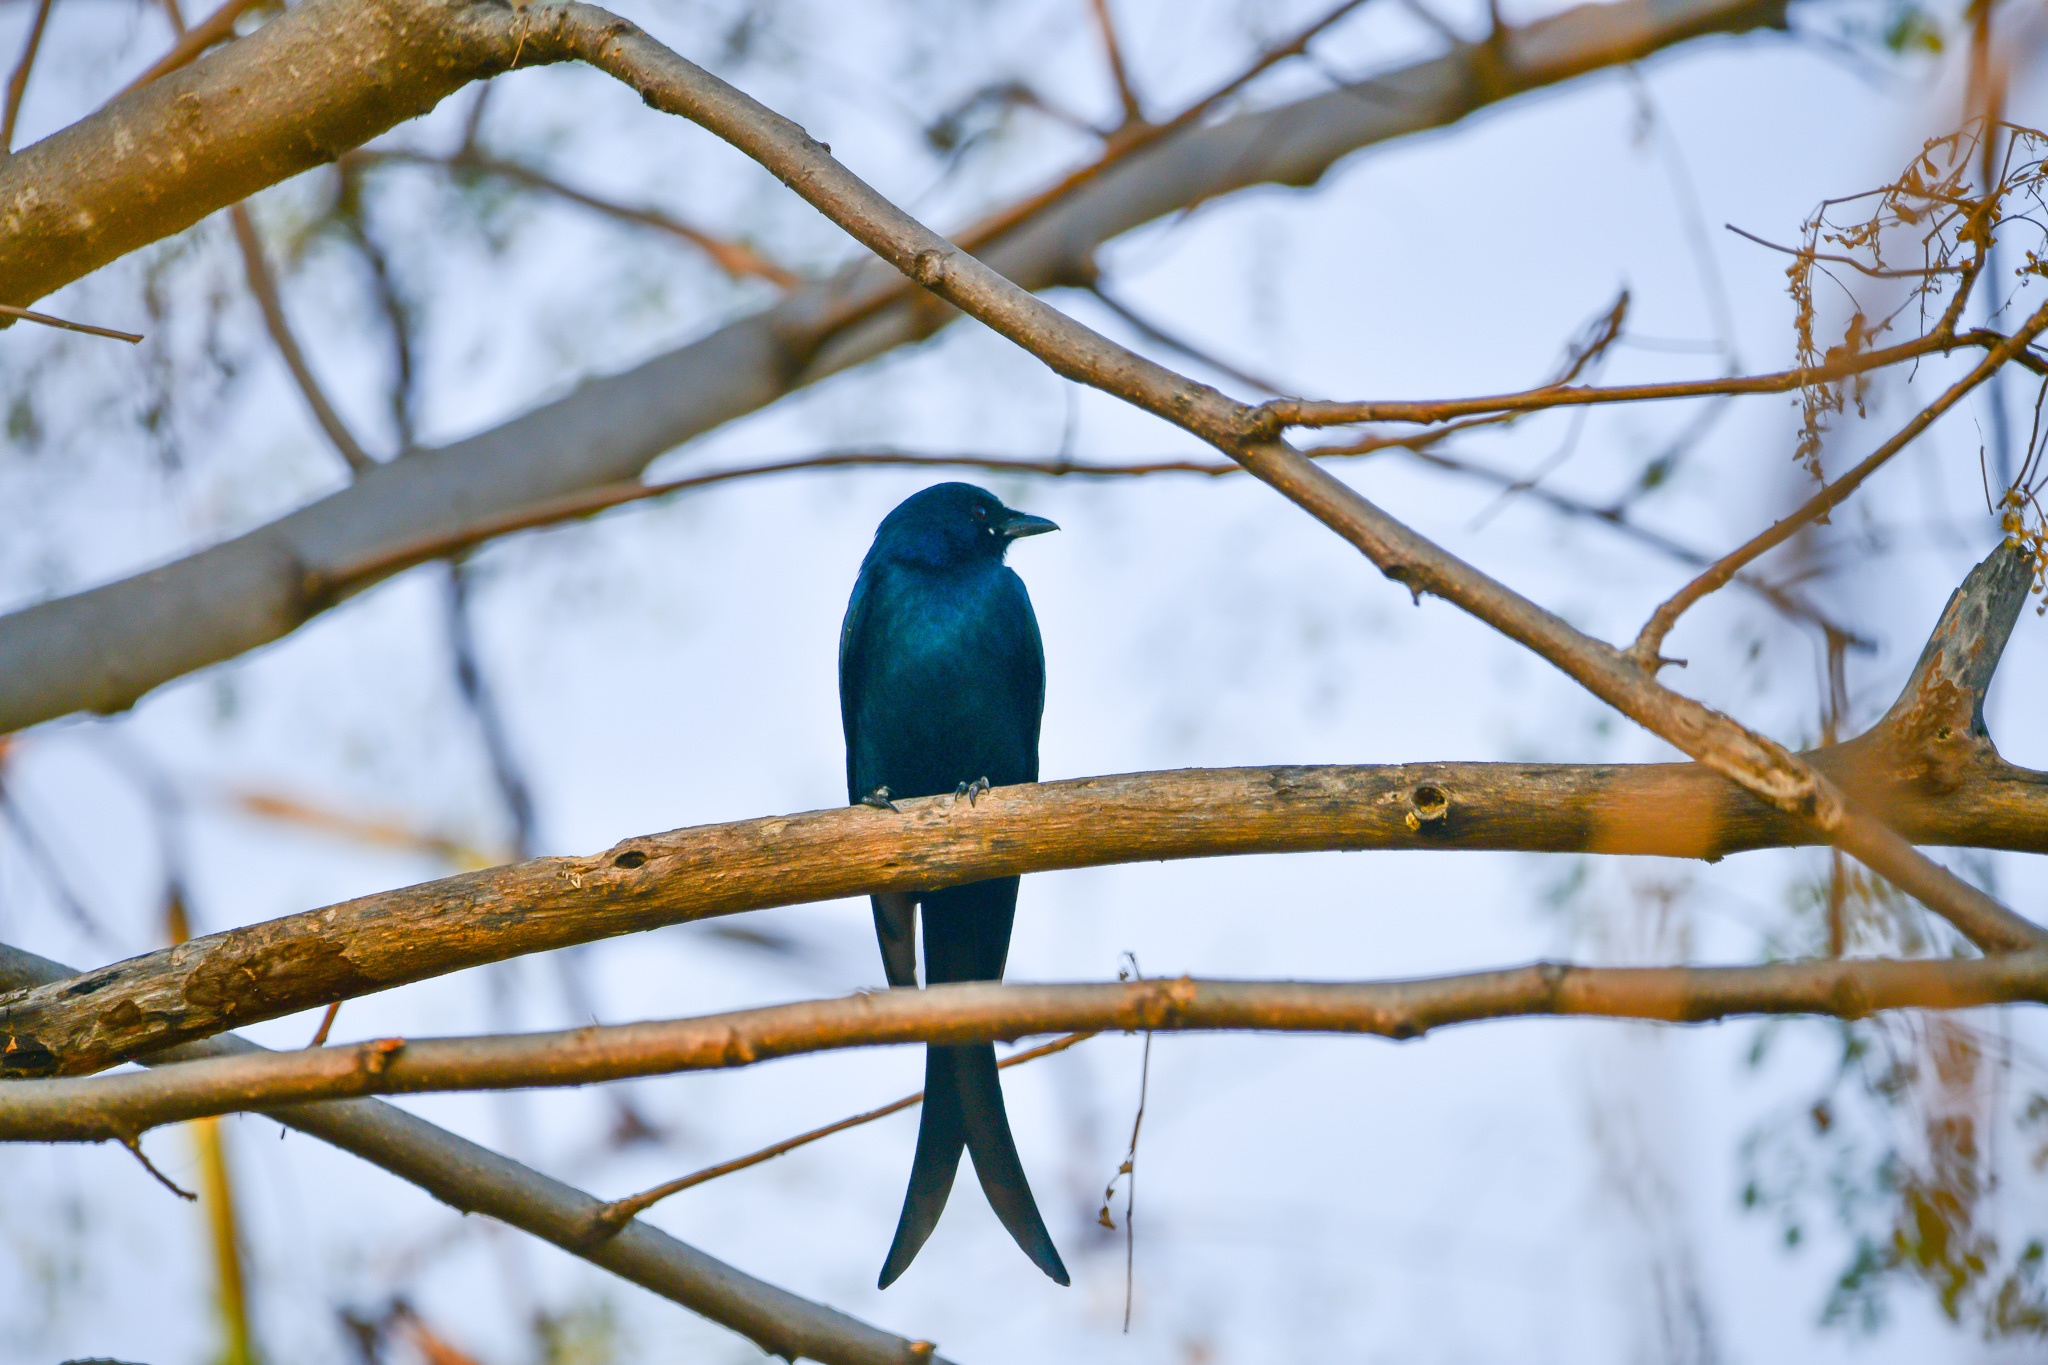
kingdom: Animalia
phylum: Chordata
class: Aves
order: Passeriformes
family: Dicruridae
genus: Dicrurus
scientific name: Dicrurus macrocercus
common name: Black drongo
